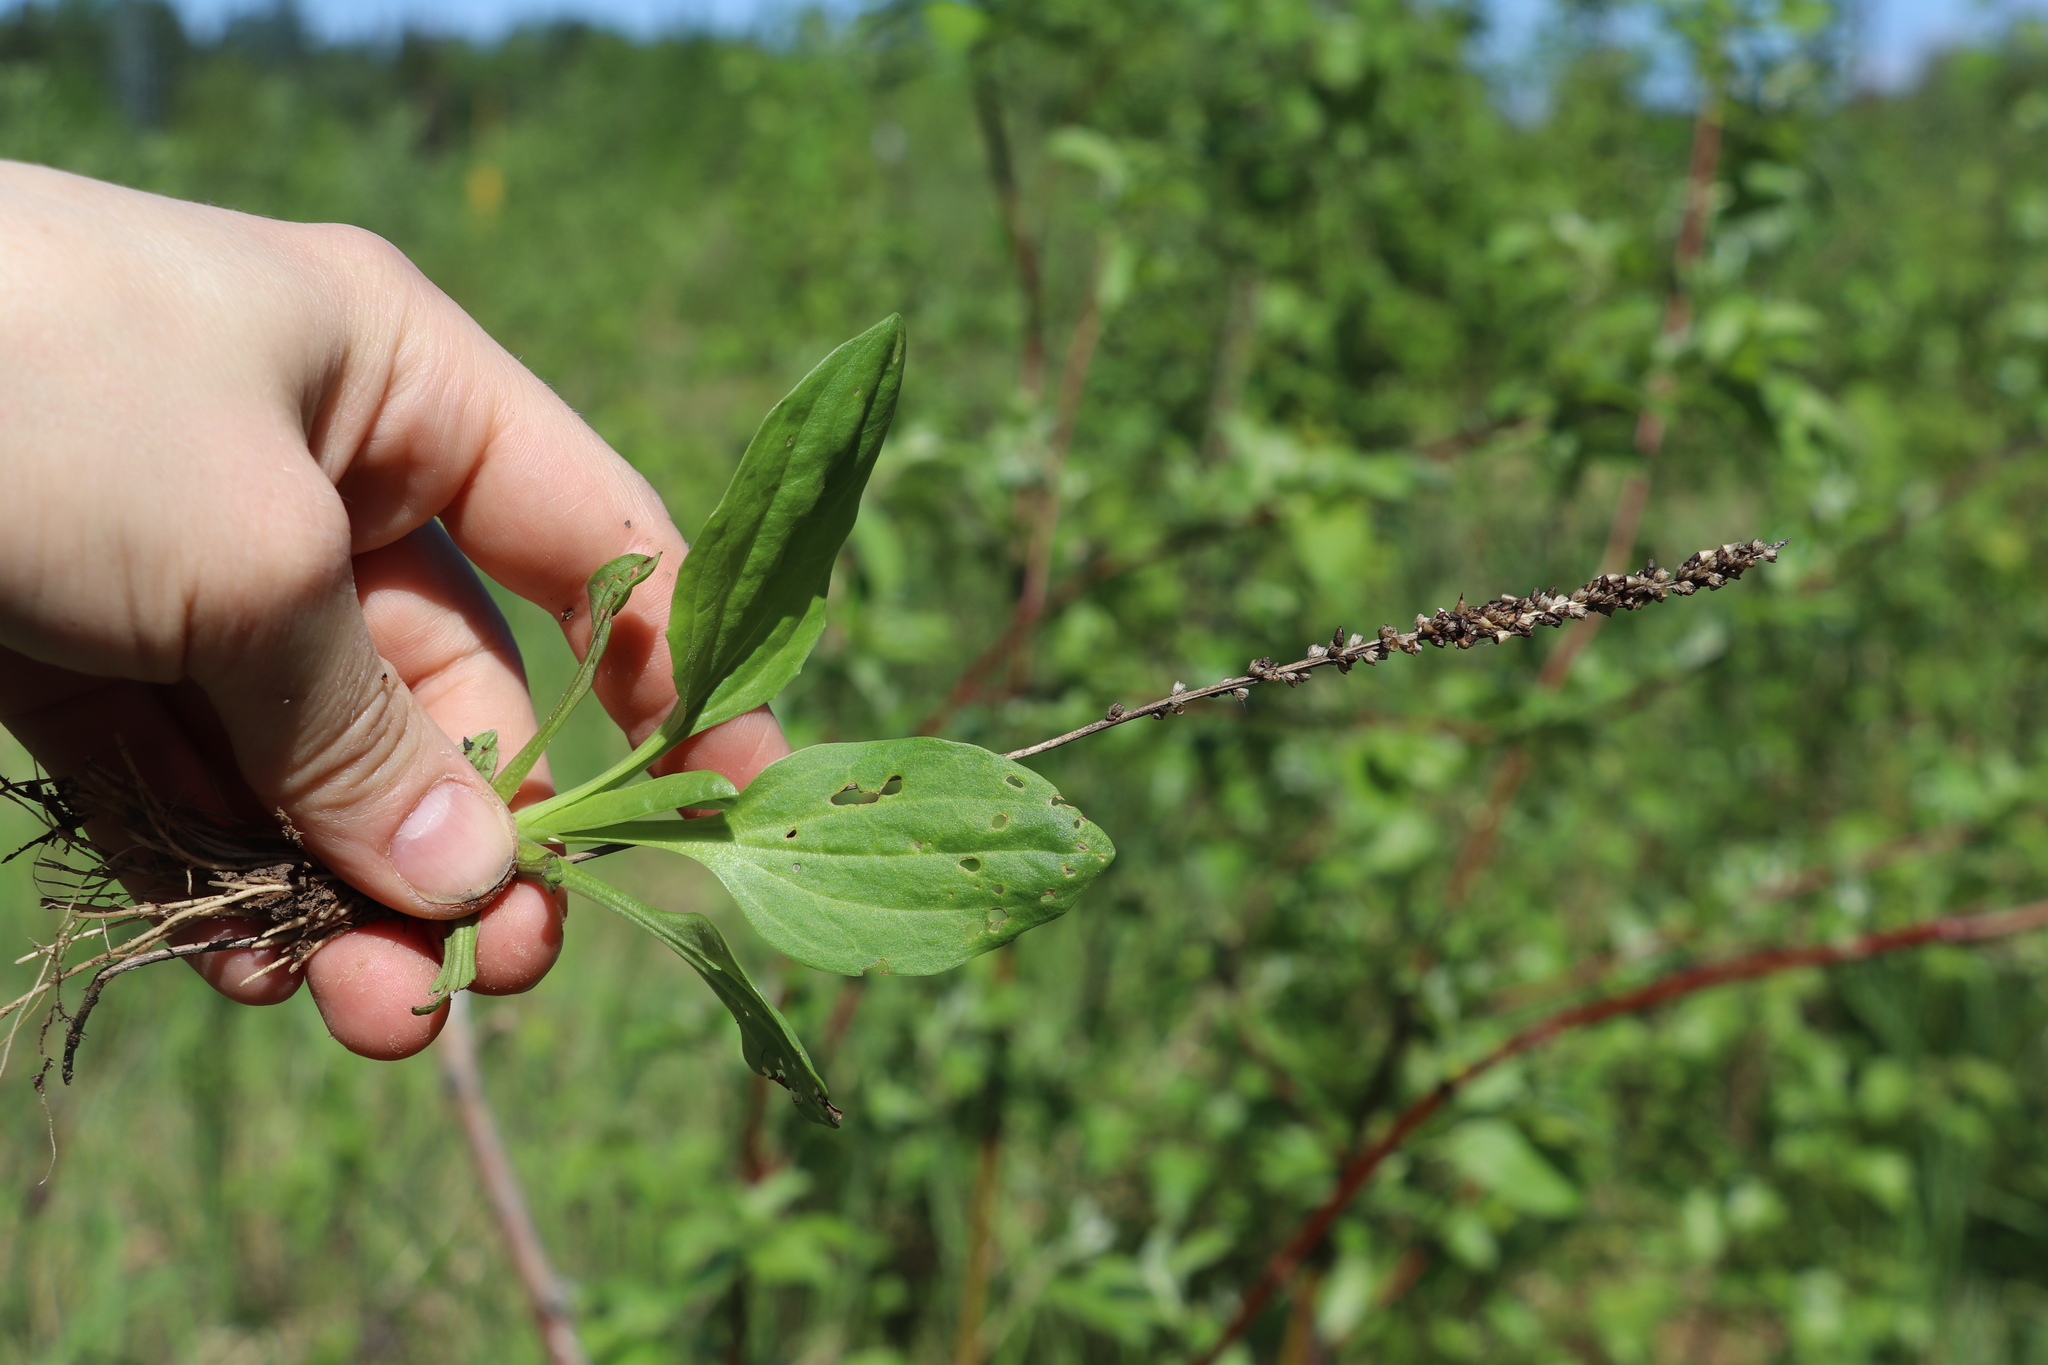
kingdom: Plantae
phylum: Tracheophyta
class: Magnoliopsida
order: Lamiales
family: Plantaginaceae
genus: Plantago
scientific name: Plantago major
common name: Common plantain
